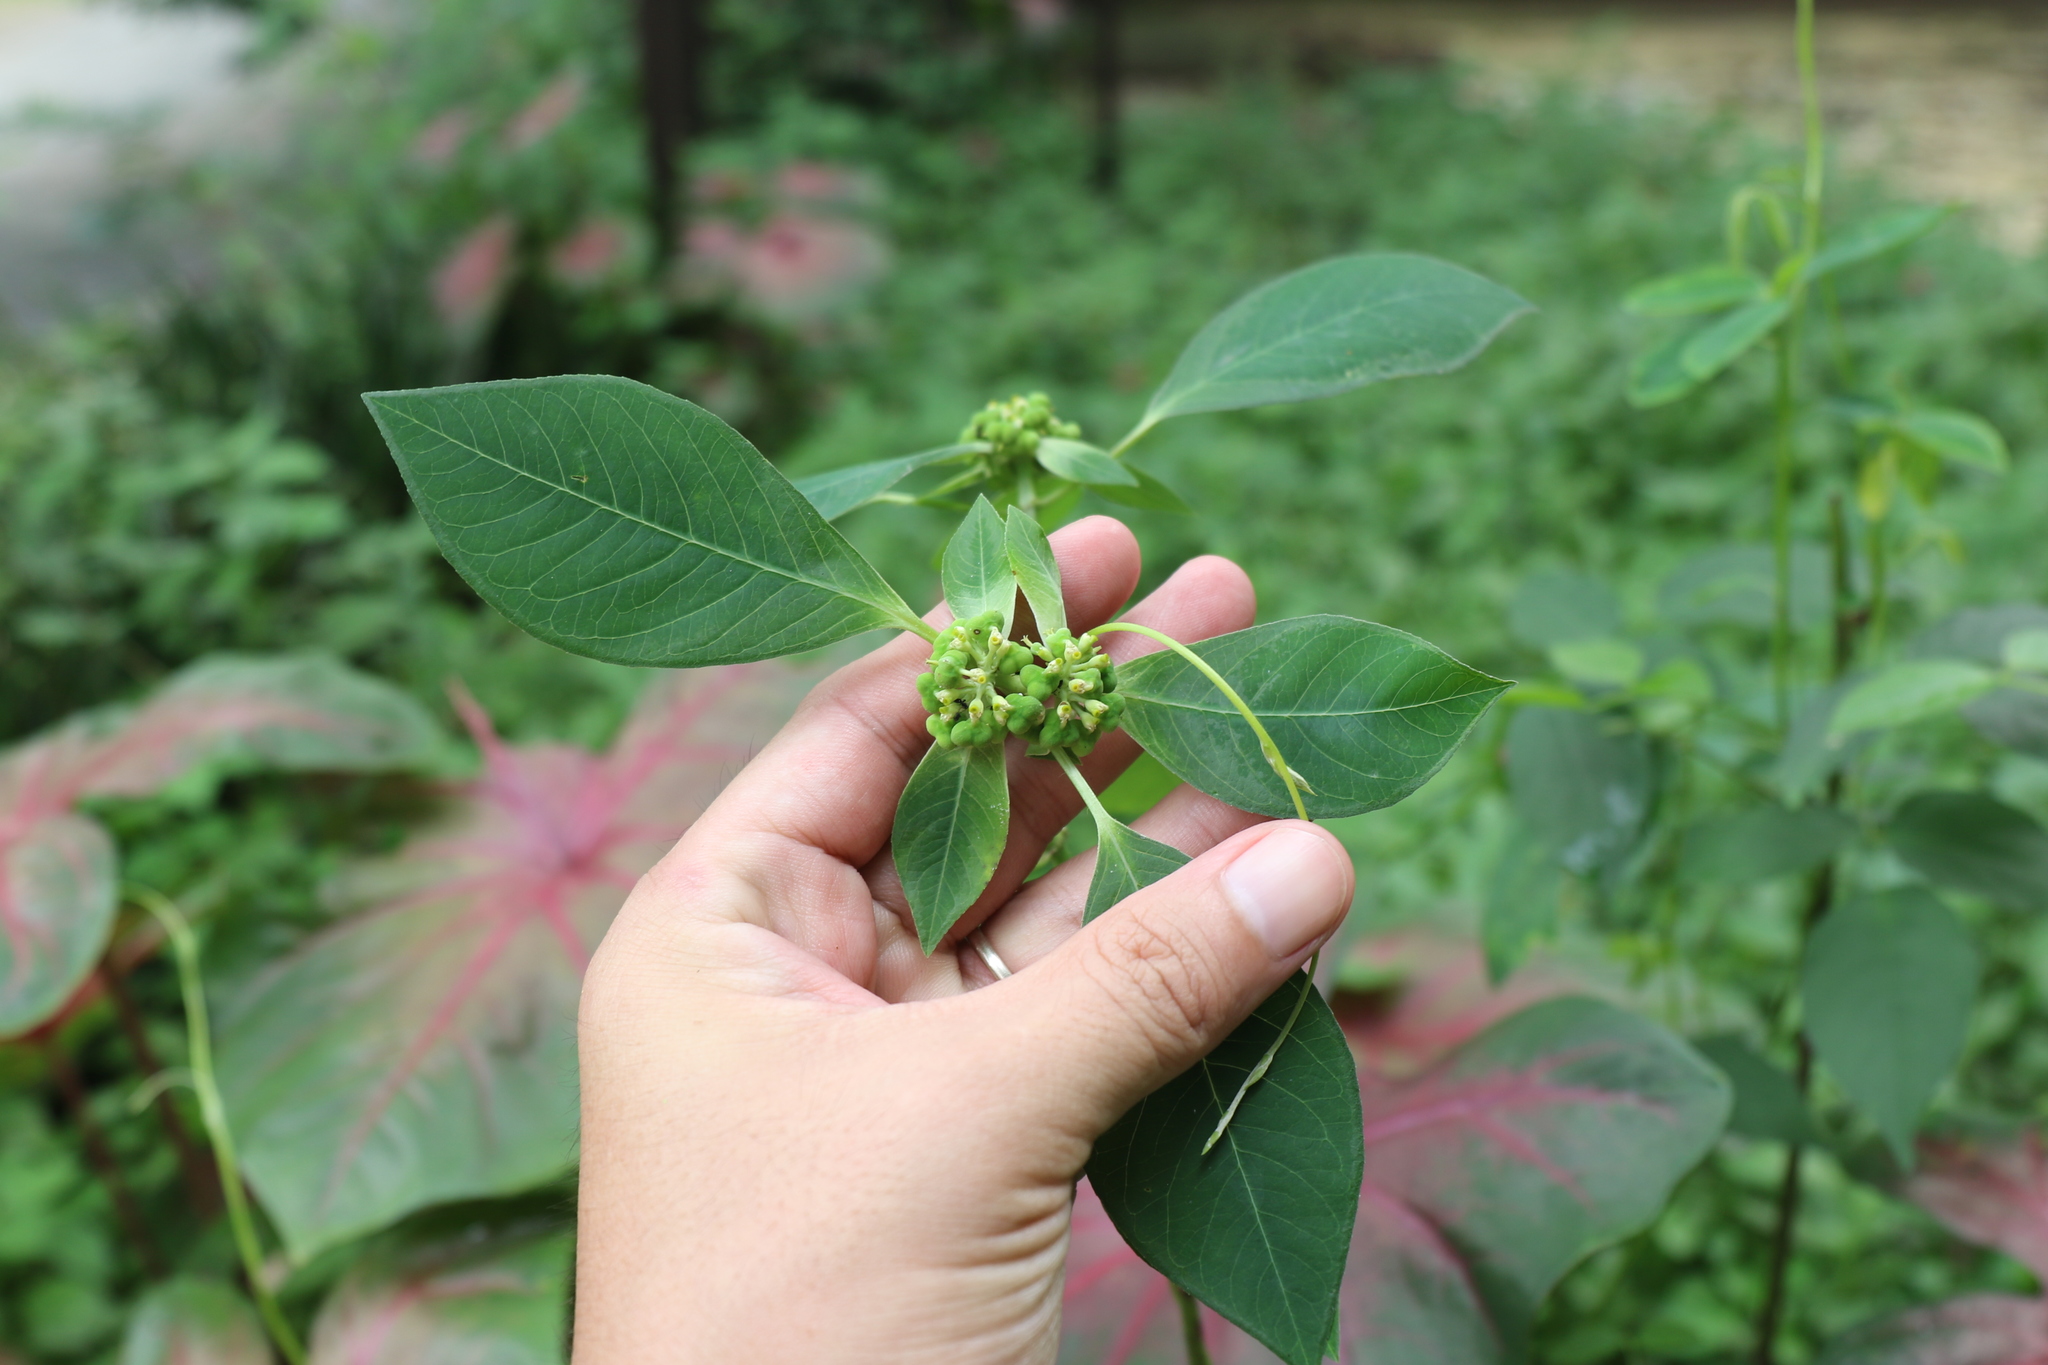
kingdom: Plantae
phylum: Tracheophyta
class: Magnoliopsida
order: Malpighiales
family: Euphorbiaceae
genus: Euphorbia
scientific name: Euphorbia heterophylla
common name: Mexican fireplant
